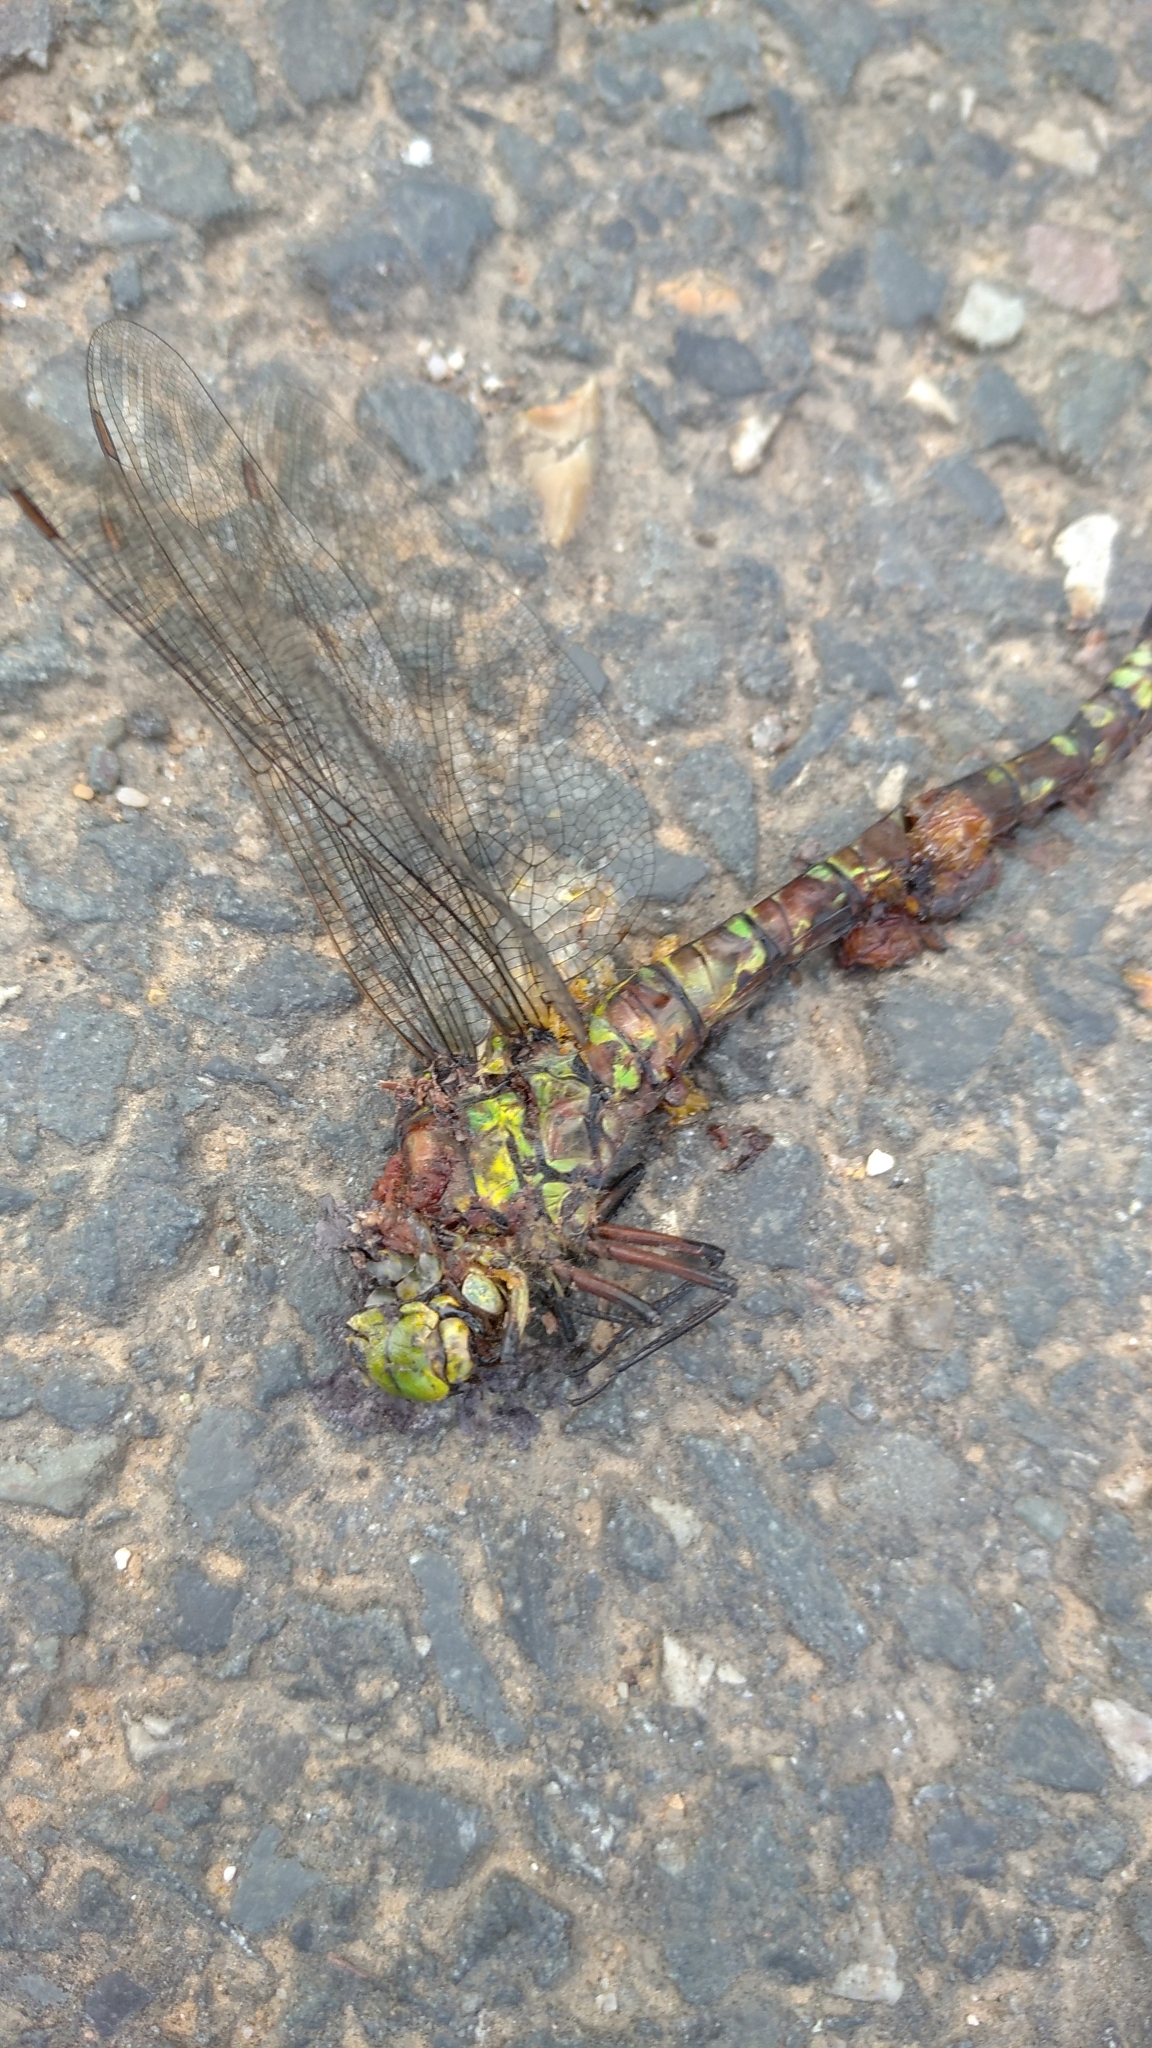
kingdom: Animalia
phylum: Arthropoda
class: Insecta
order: Odonata
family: Aeshnidae
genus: Aeshna
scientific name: Aeshna cyanea
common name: Southern hawker
